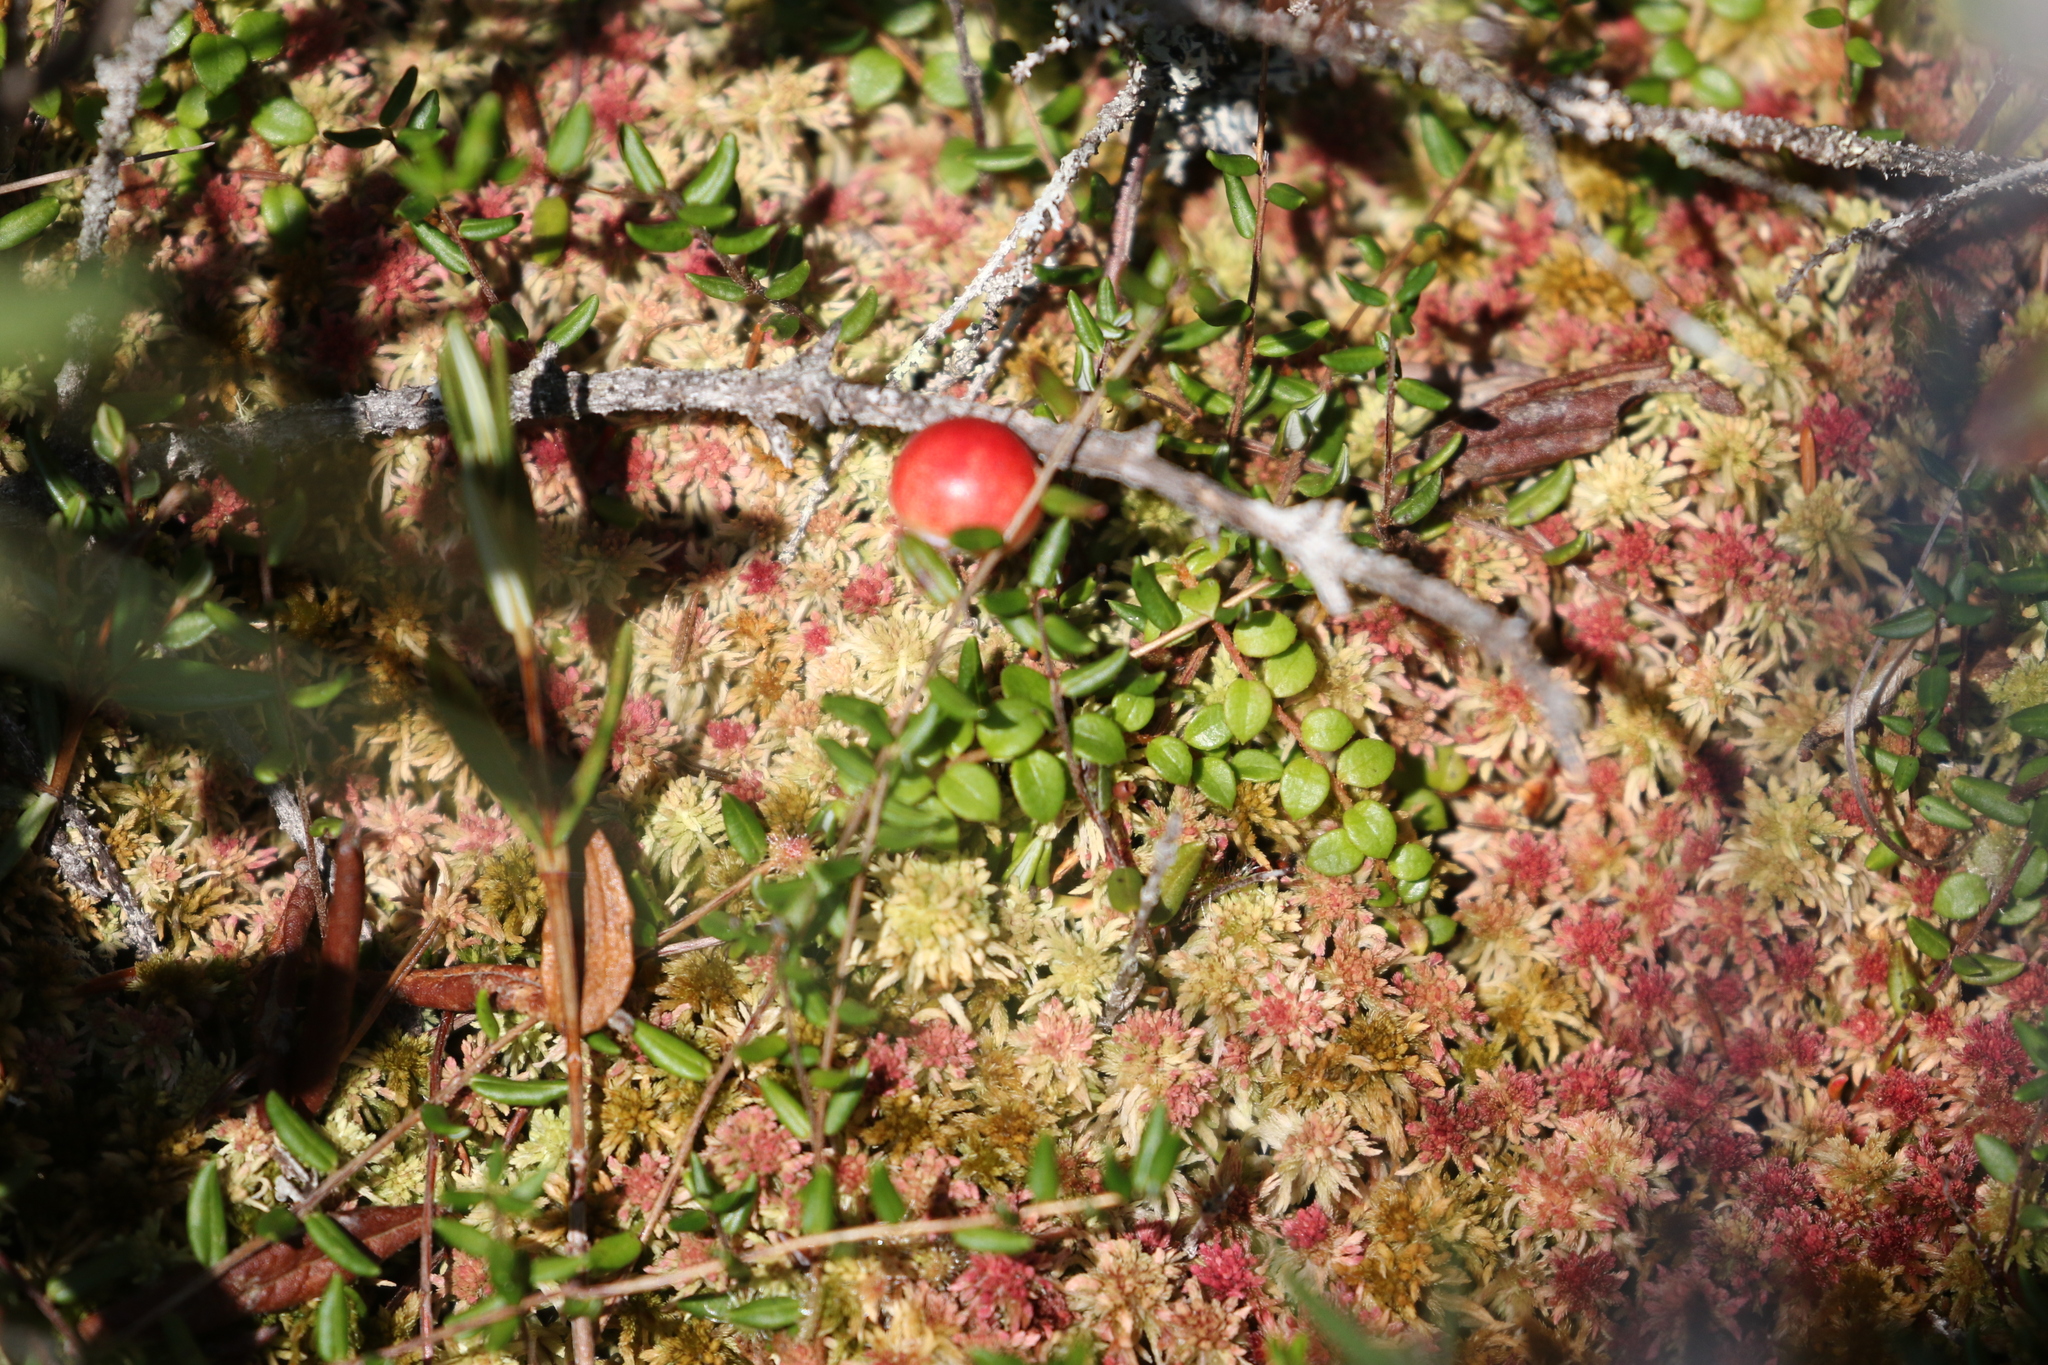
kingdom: Plantae
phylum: Tracheophyta
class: Magnoliopsida
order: Ericales
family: Ericaceae
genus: Vaccinium
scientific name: Vaccinium oxycoccos
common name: Cranberry
